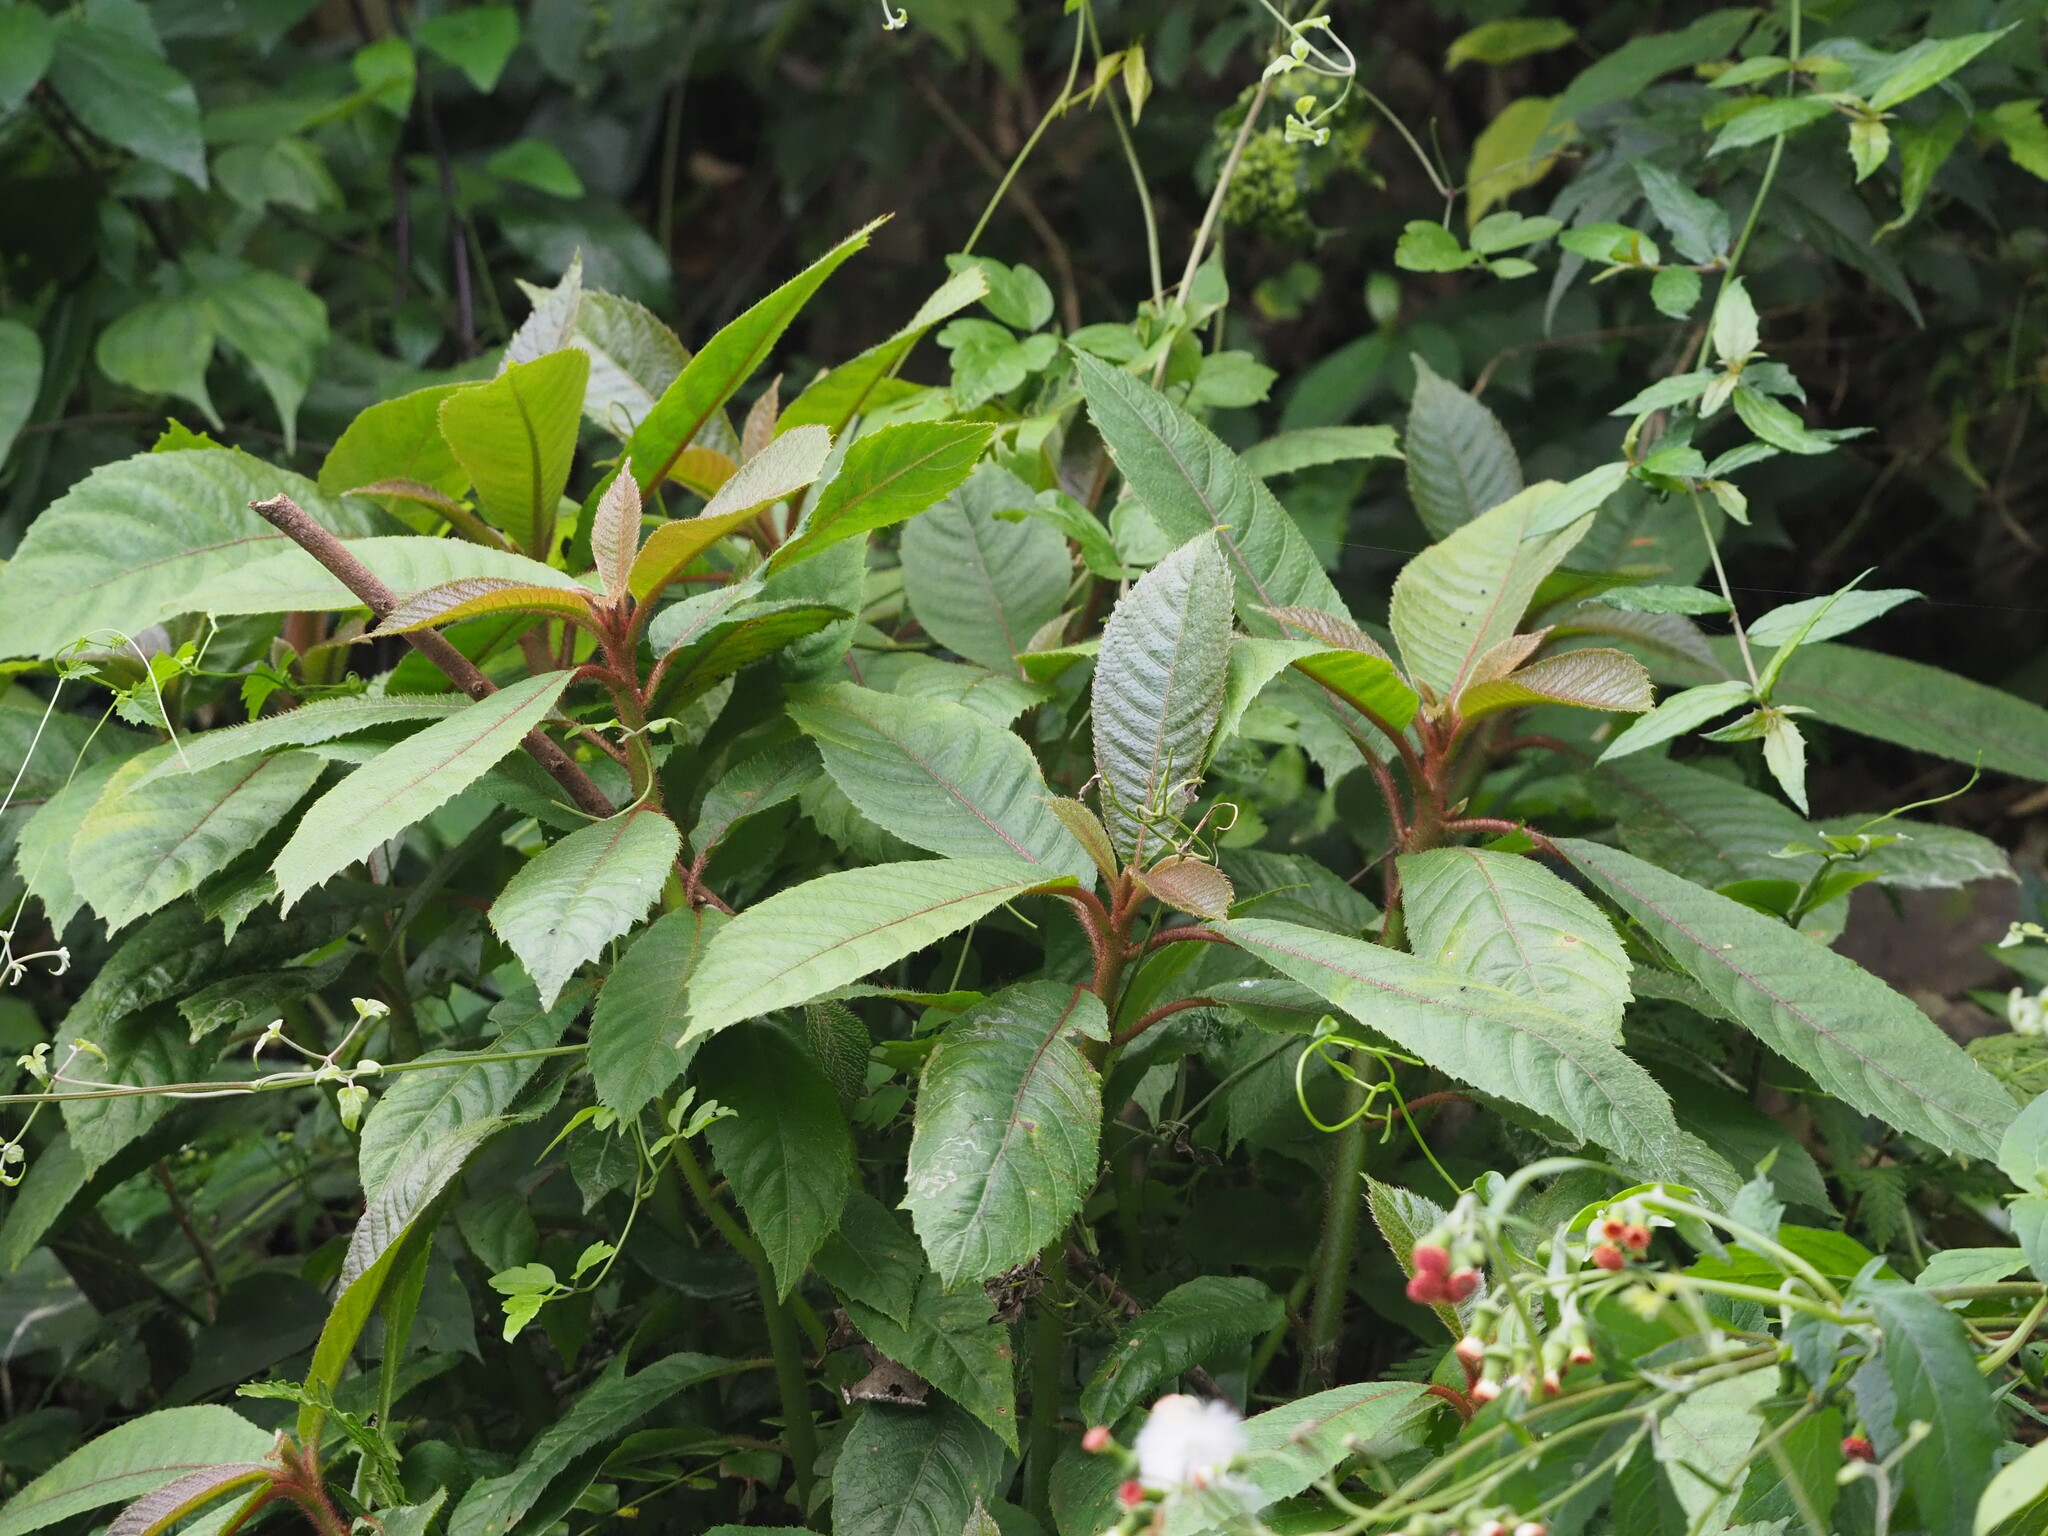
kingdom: Plantae
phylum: Tracheophyta
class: Magnoliopsida
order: Ericales
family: Actinidiaceae
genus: Saurauia
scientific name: Saurauia tristyla
